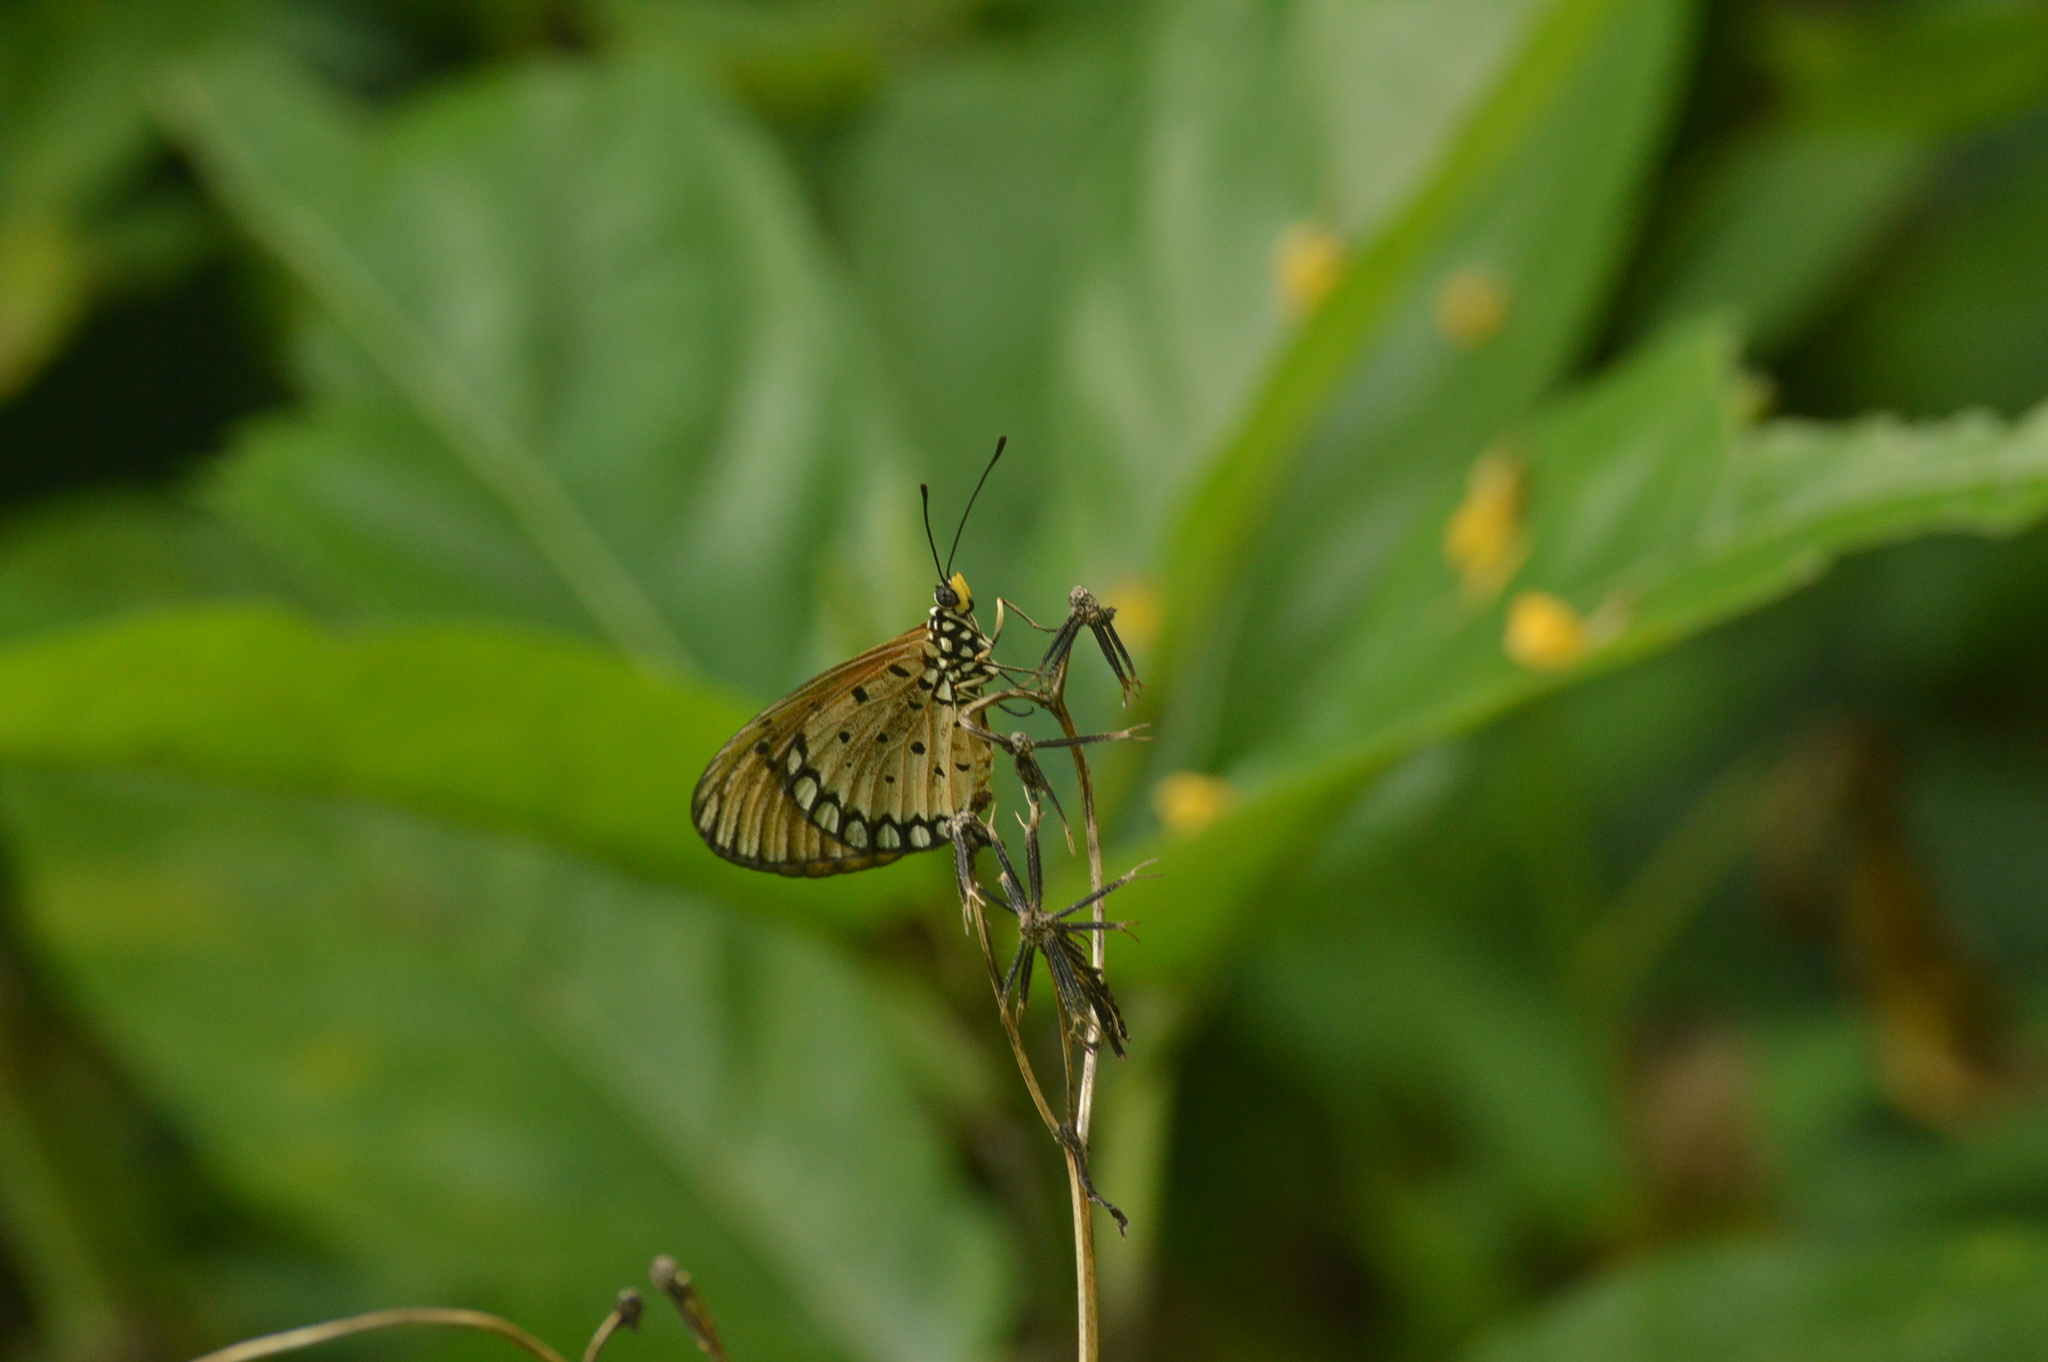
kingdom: Animalia
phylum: Arthropoda
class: Insecta
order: Lepidoptera
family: Nymphalidae
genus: Acraea
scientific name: Acraea terpsicore
